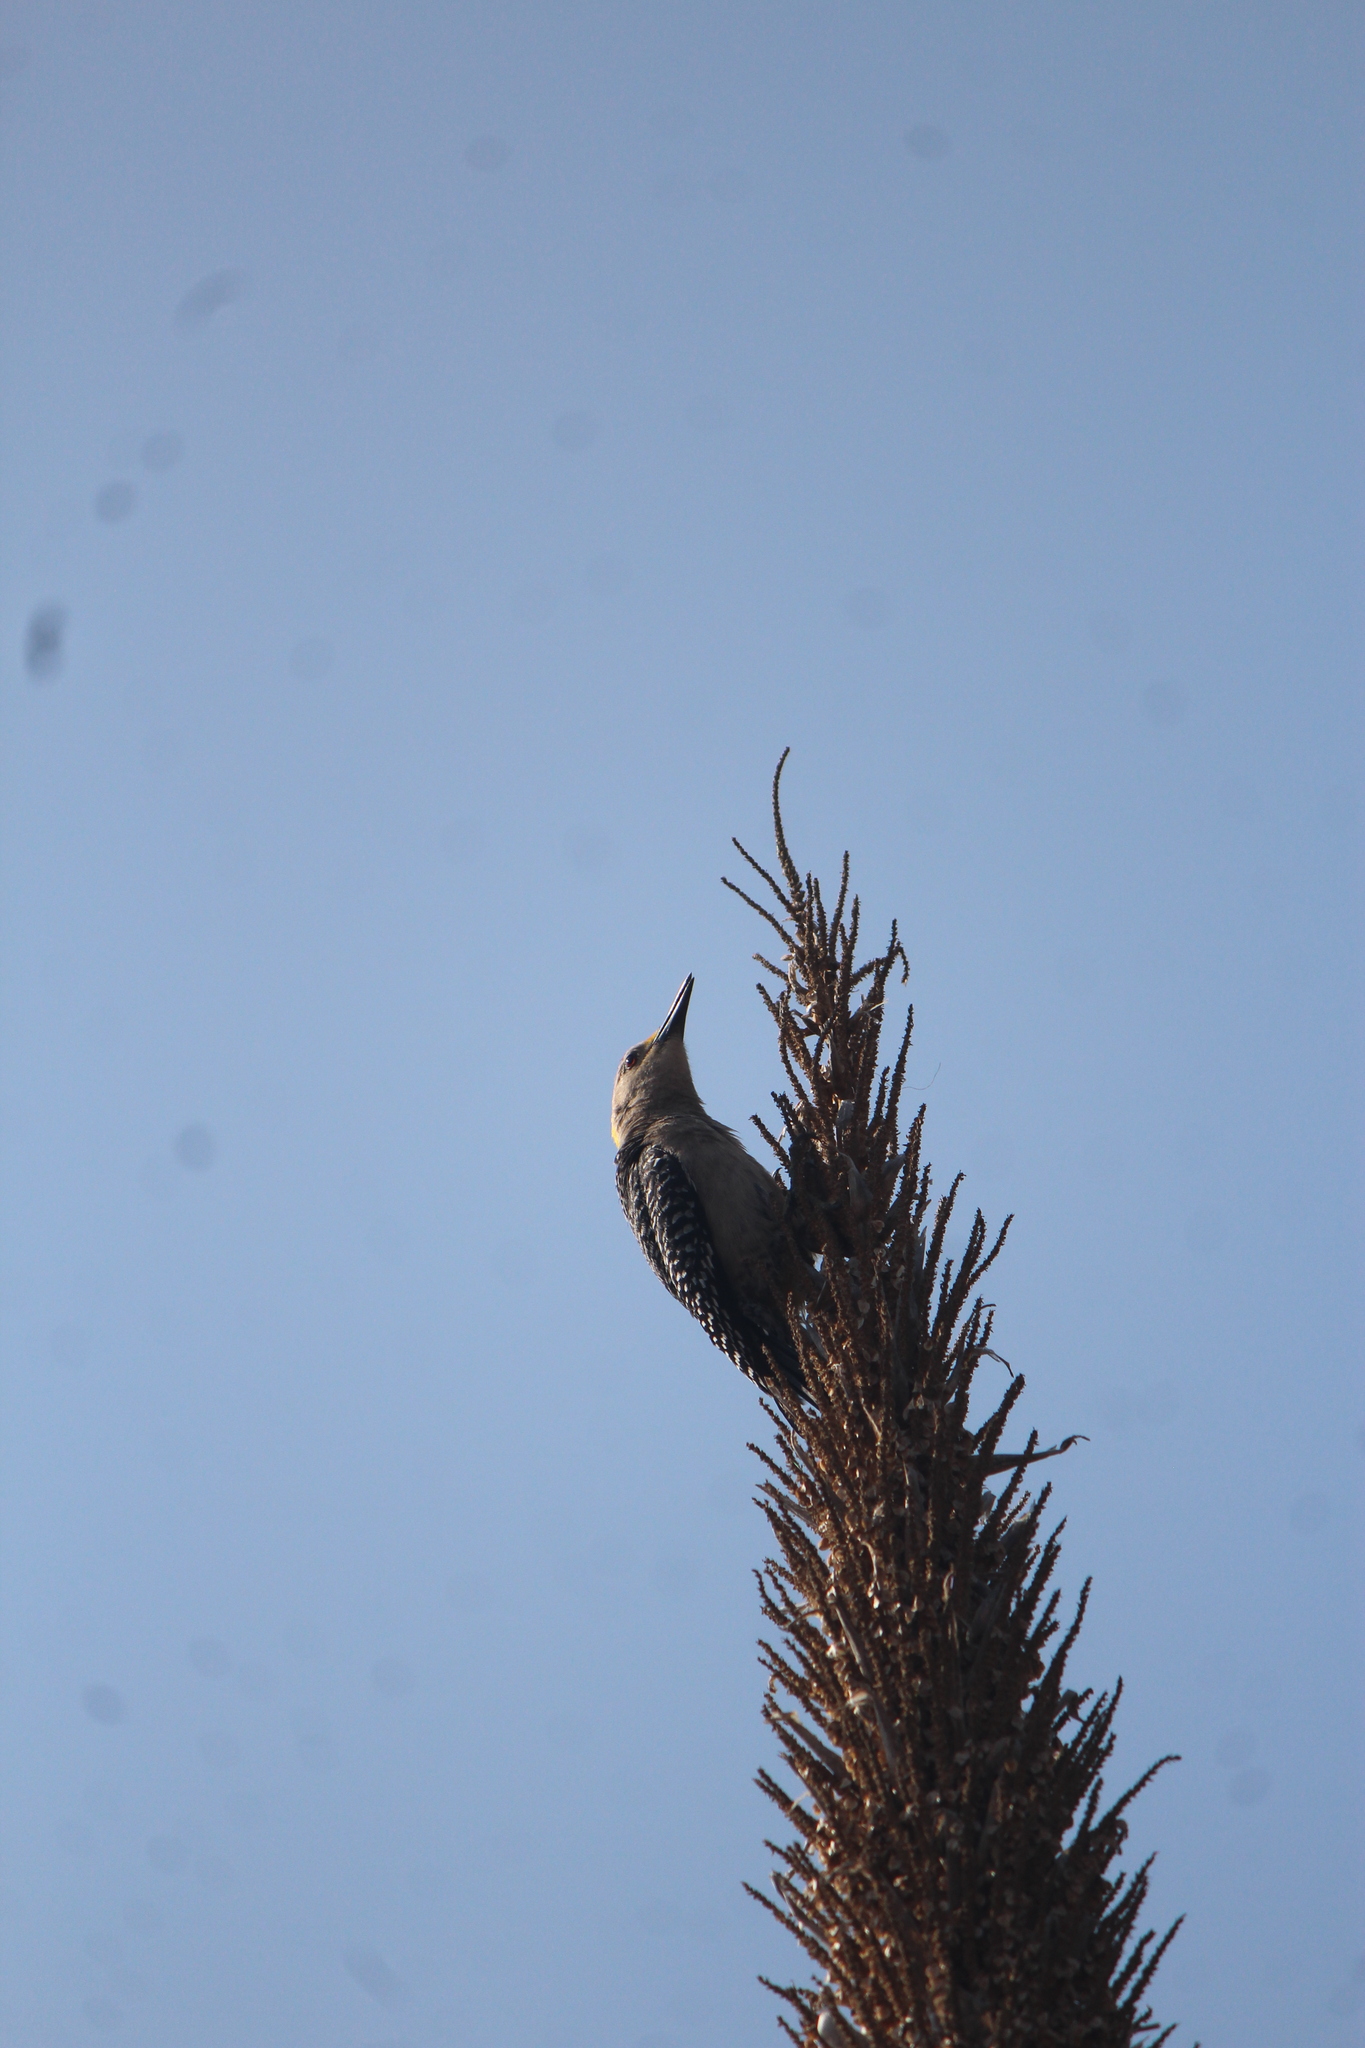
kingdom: Animalia
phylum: Chordata
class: Aves
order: Piciformes
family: Picidae
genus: Melanerpes
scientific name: Melanerpes aurifrons
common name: Golden-fronted woodpecker
